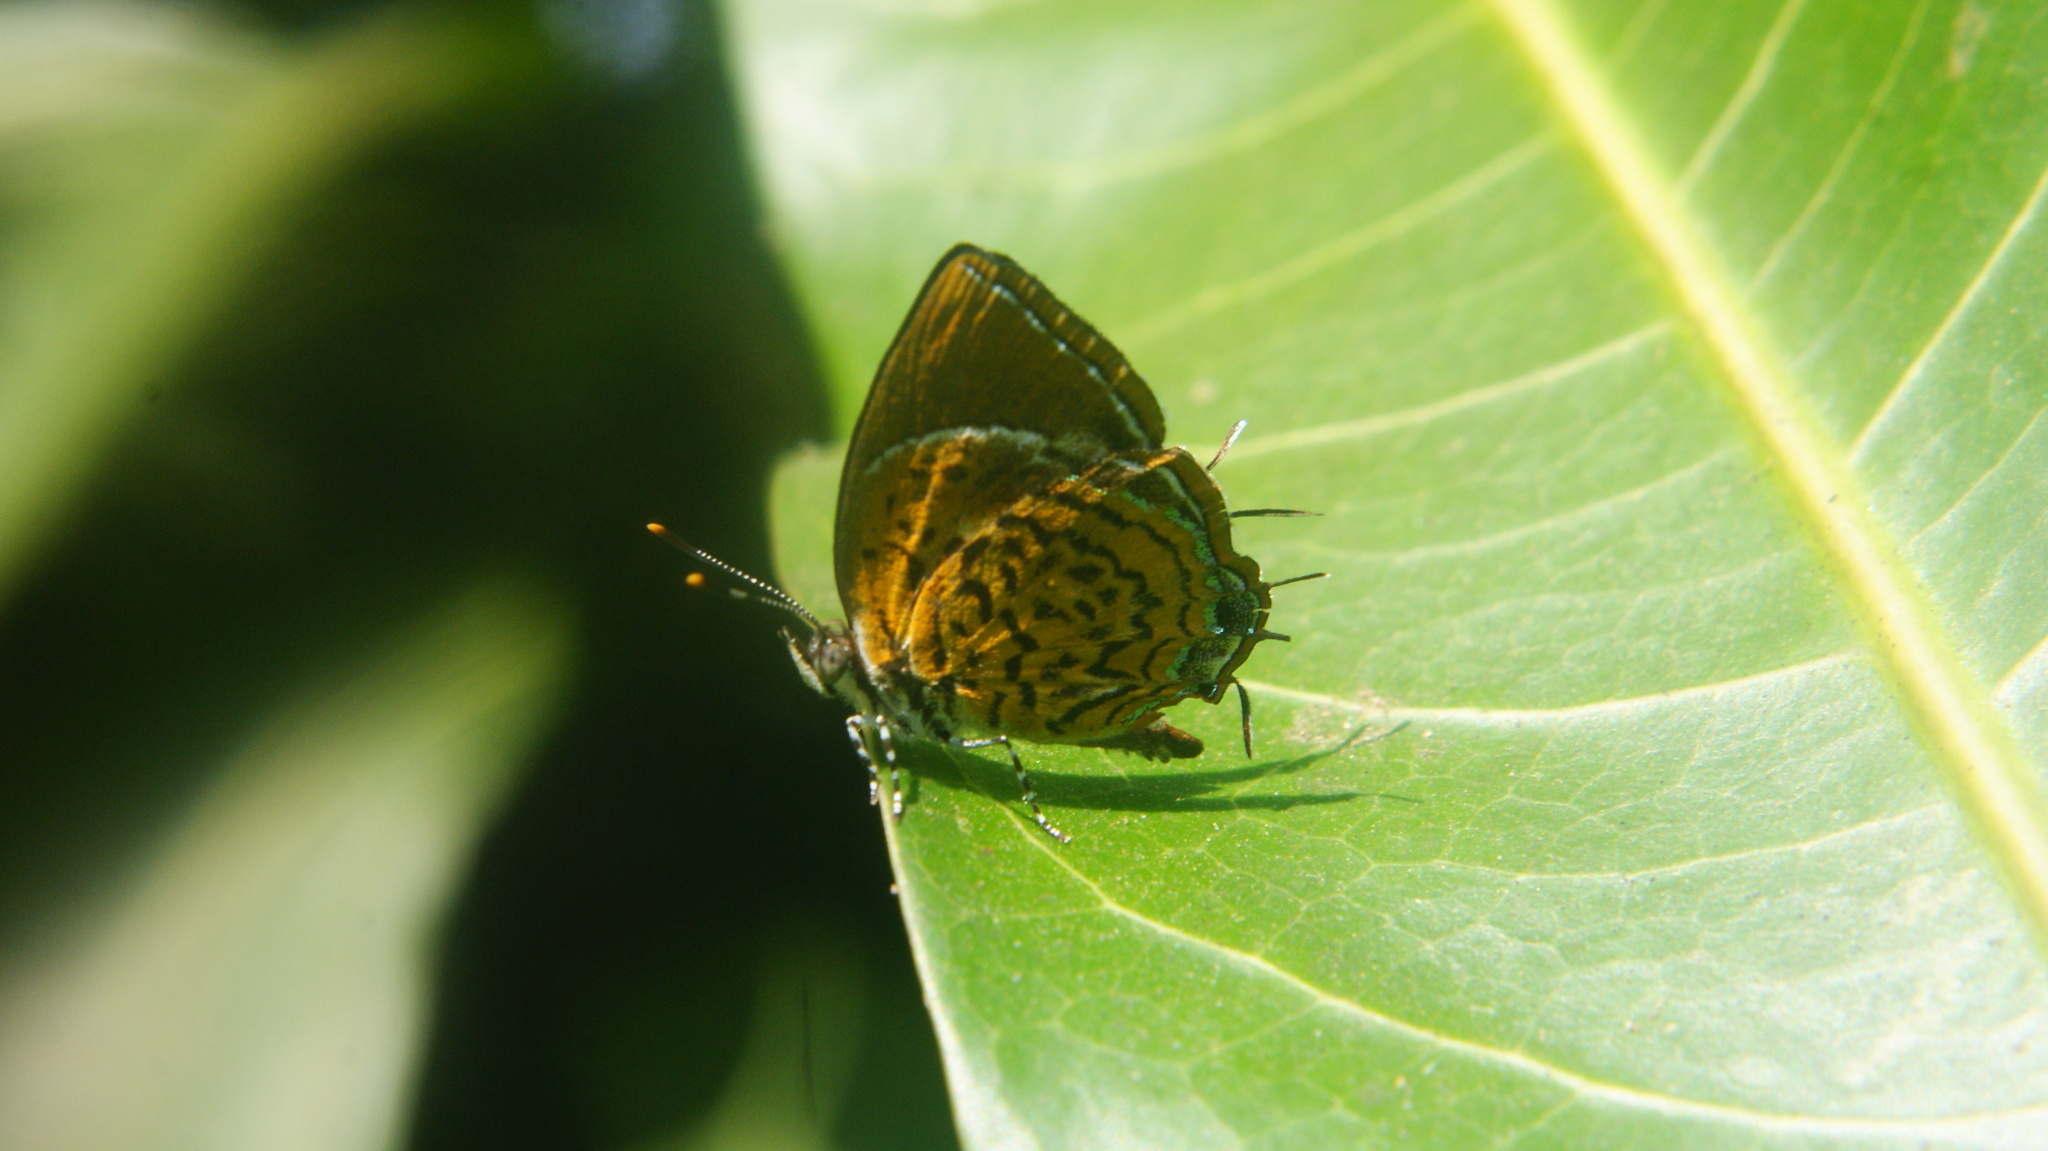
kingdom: Animalia
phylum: Arthropoda
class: Insecta
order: Lepidoptera
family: Lycaenidae
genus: Rathinda
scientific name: Rathinda amor
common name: Monkey puzzle
